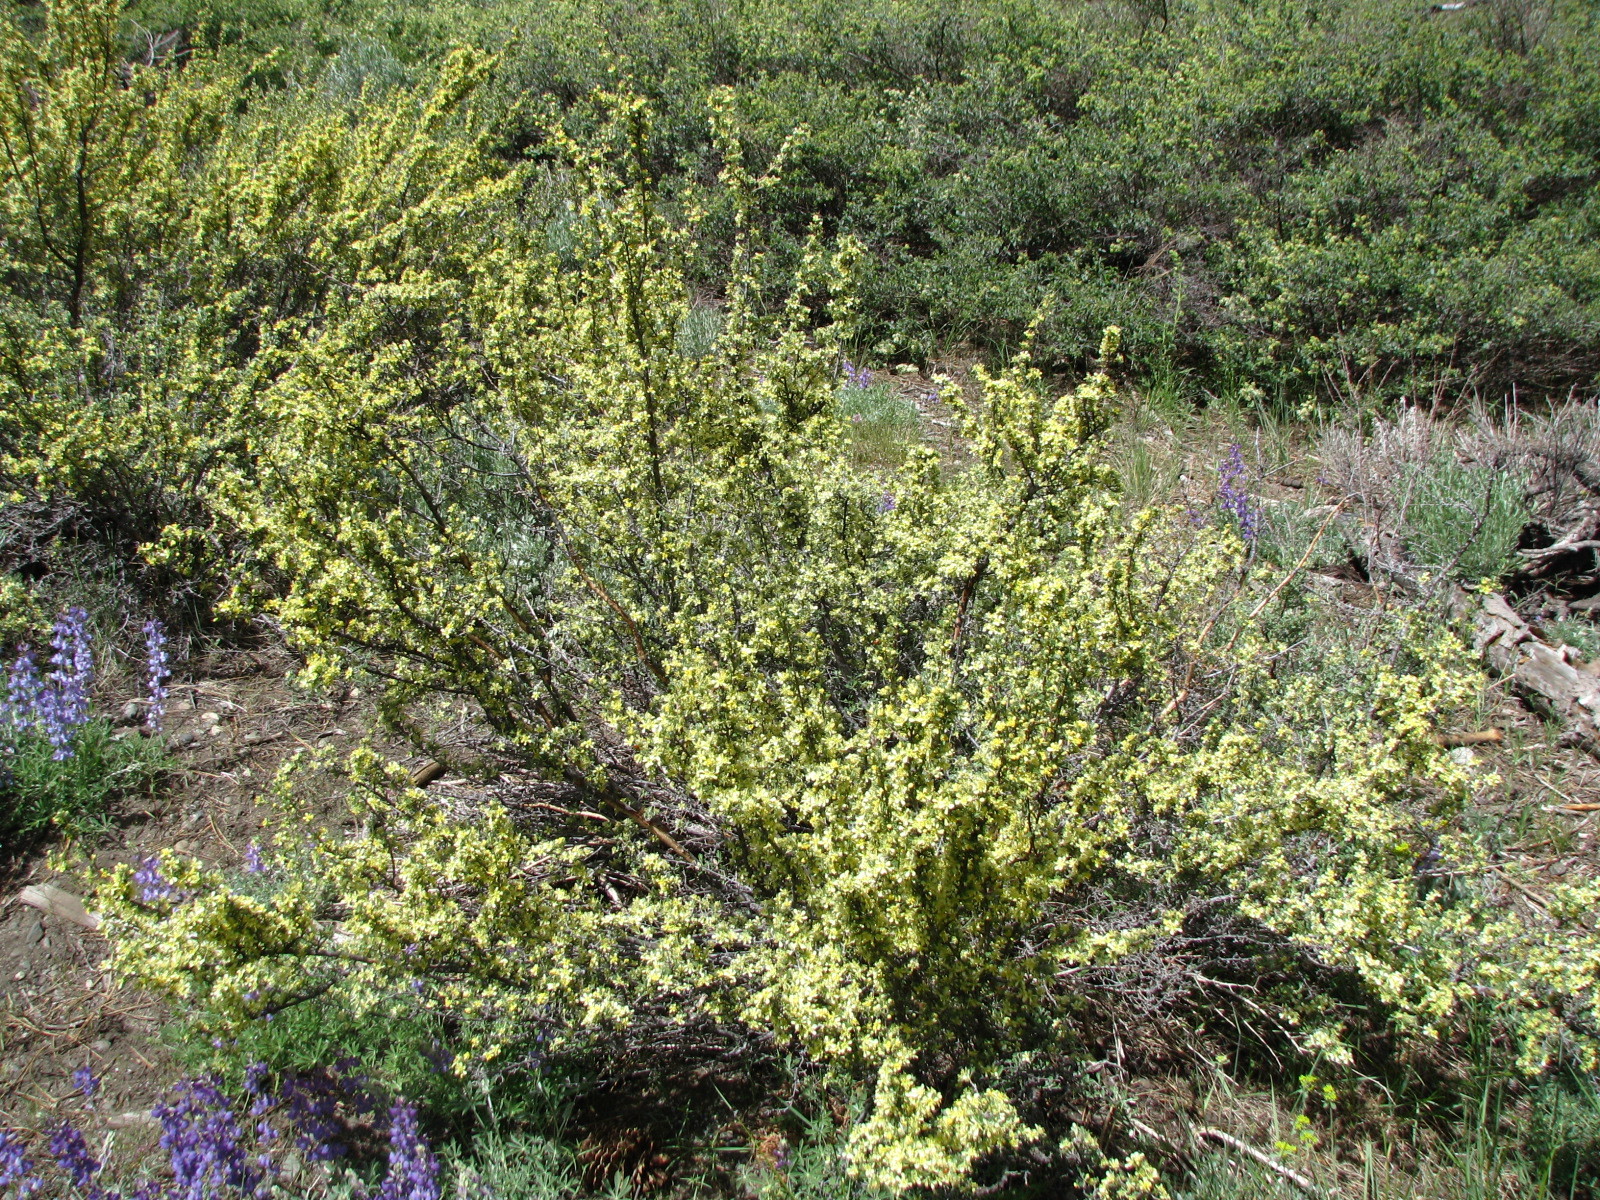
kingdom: Plantae
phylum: Tracheophyta
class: Magnoliopsida
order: Rosales
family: Rosaceae
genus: Purshia
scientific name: Purshia tridentata
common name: Antelope bitterbrush
